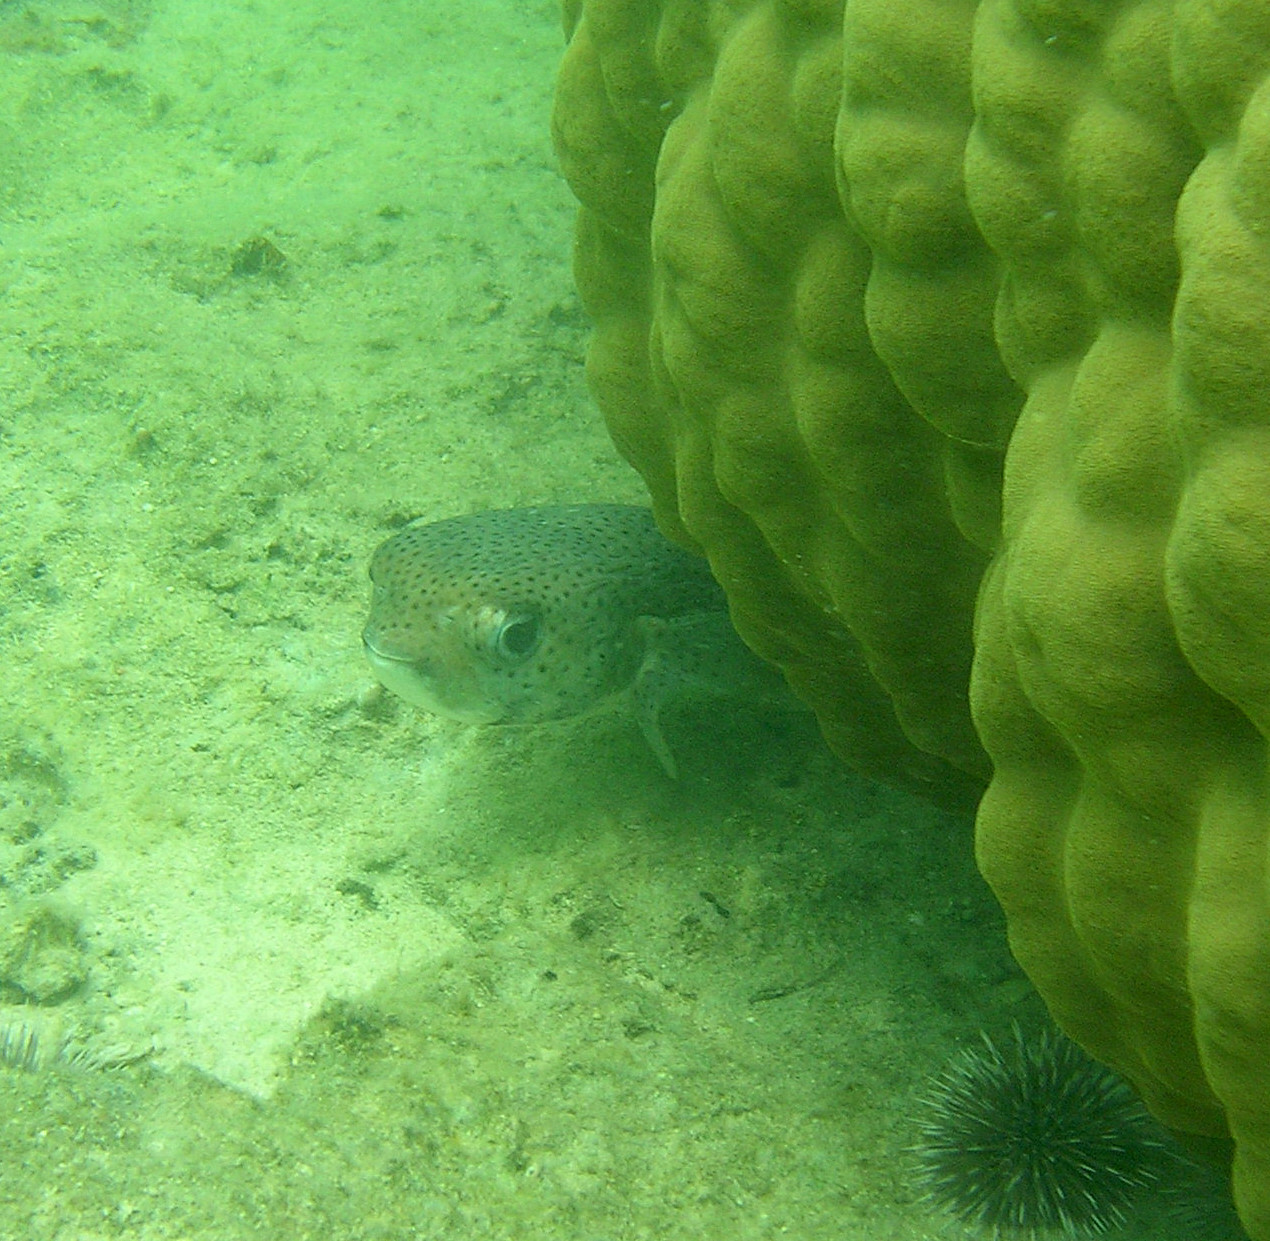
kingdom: Animalia
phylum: Chordata
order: Tetraodontiformes
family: Diodontidae
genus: Diodon
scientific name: Diodon hystrix
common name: Giant porcupinefish
